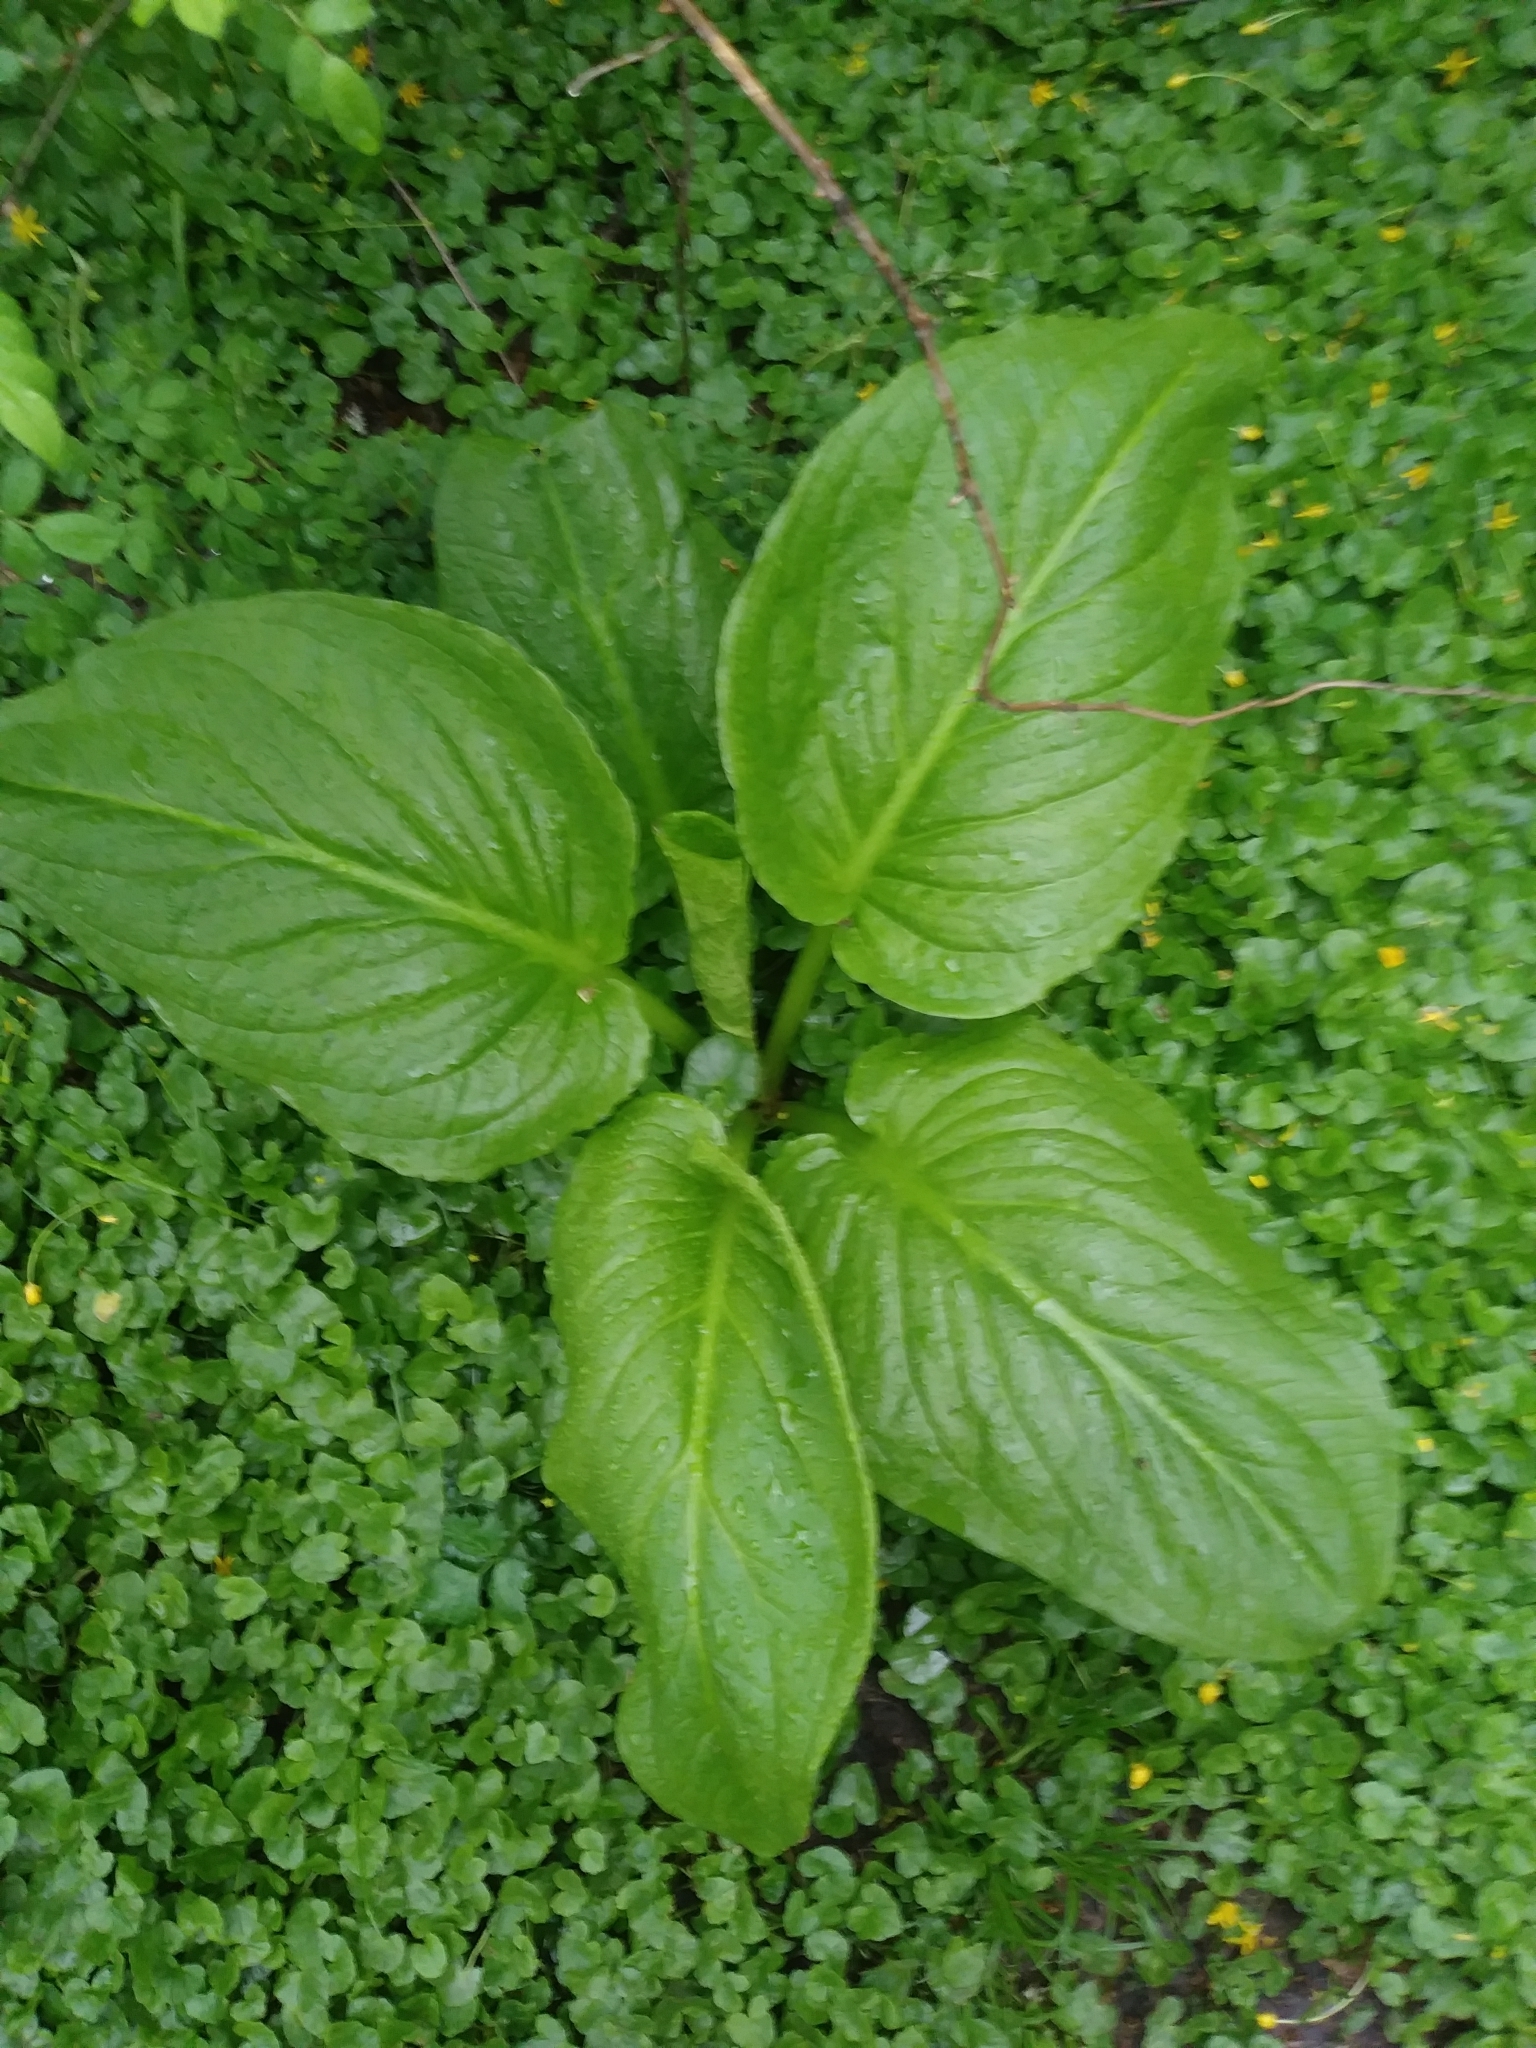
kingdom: Plantae
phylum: Tracheophyta
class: Liliopsida
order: Alismatales
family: Araceae
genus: Symplocarpus
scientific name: Symplocarpus foetidus
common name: Eastern skunk cabbage
